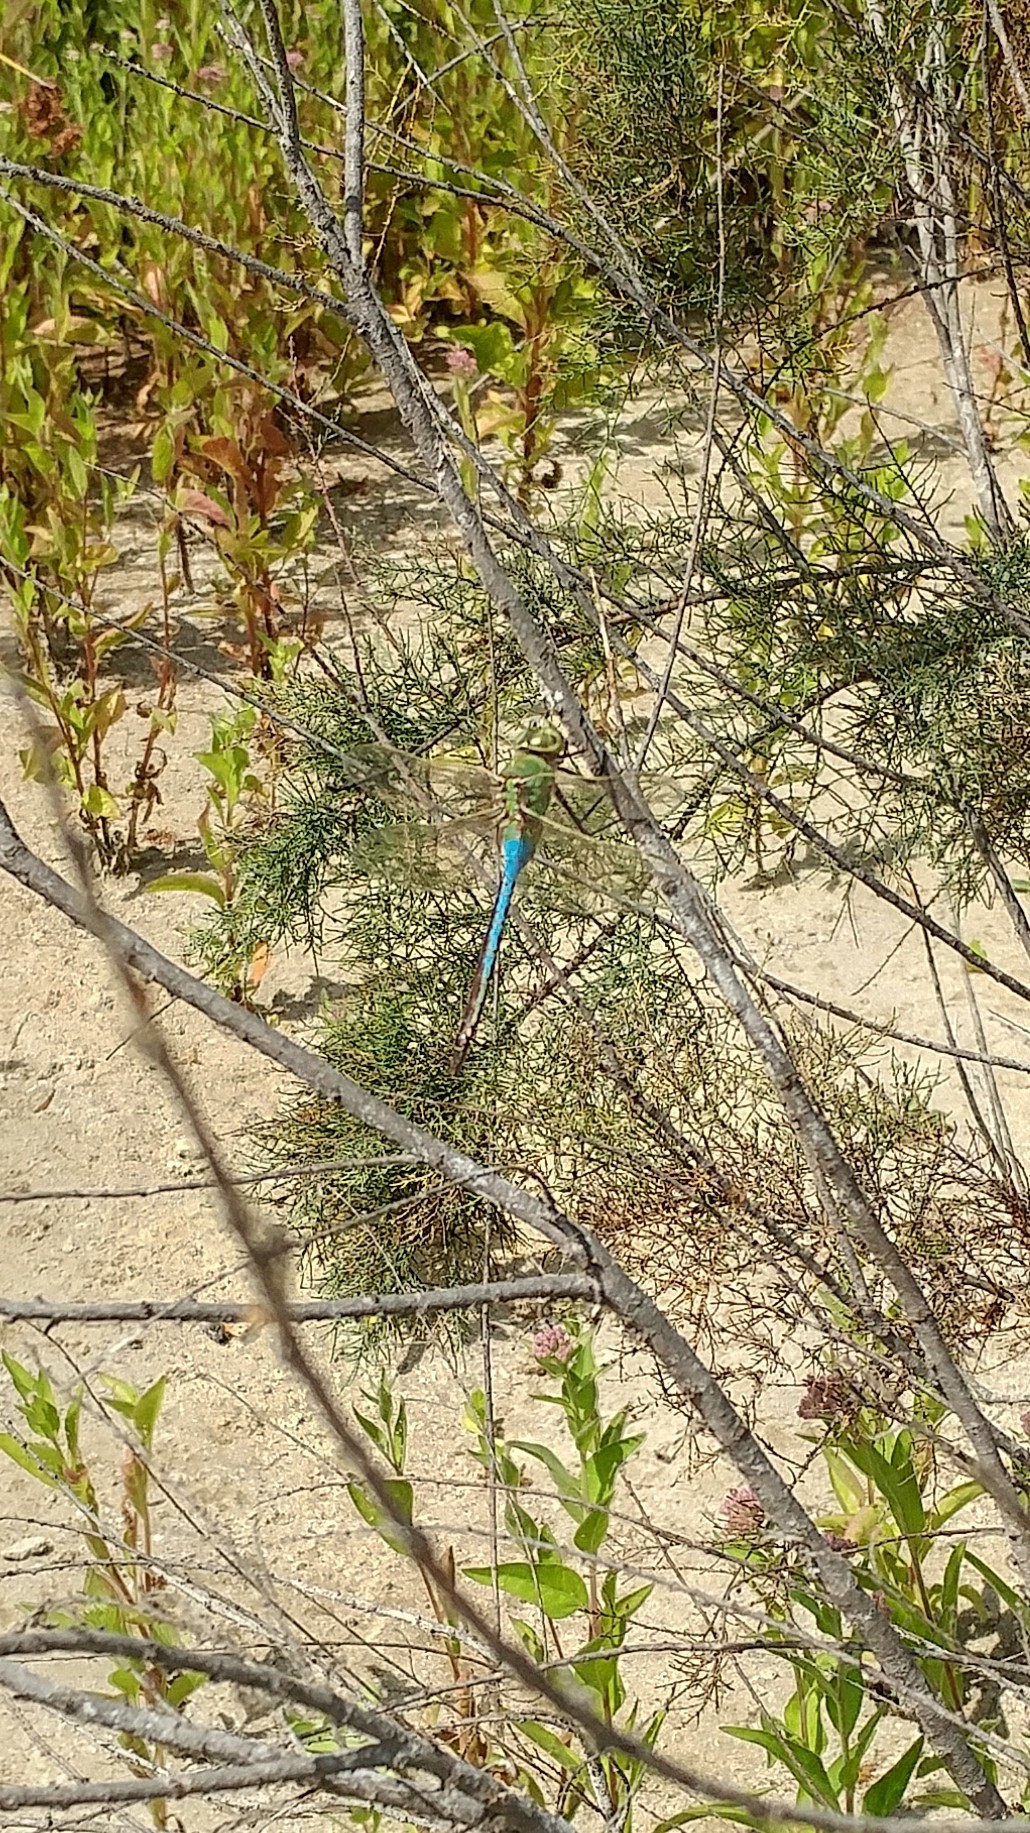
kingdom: Animalia
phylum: Arthropoda
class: Insecta
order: Odonata
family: Aeshnidae
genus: Anax
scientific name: Anax junius
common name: Common green darner
